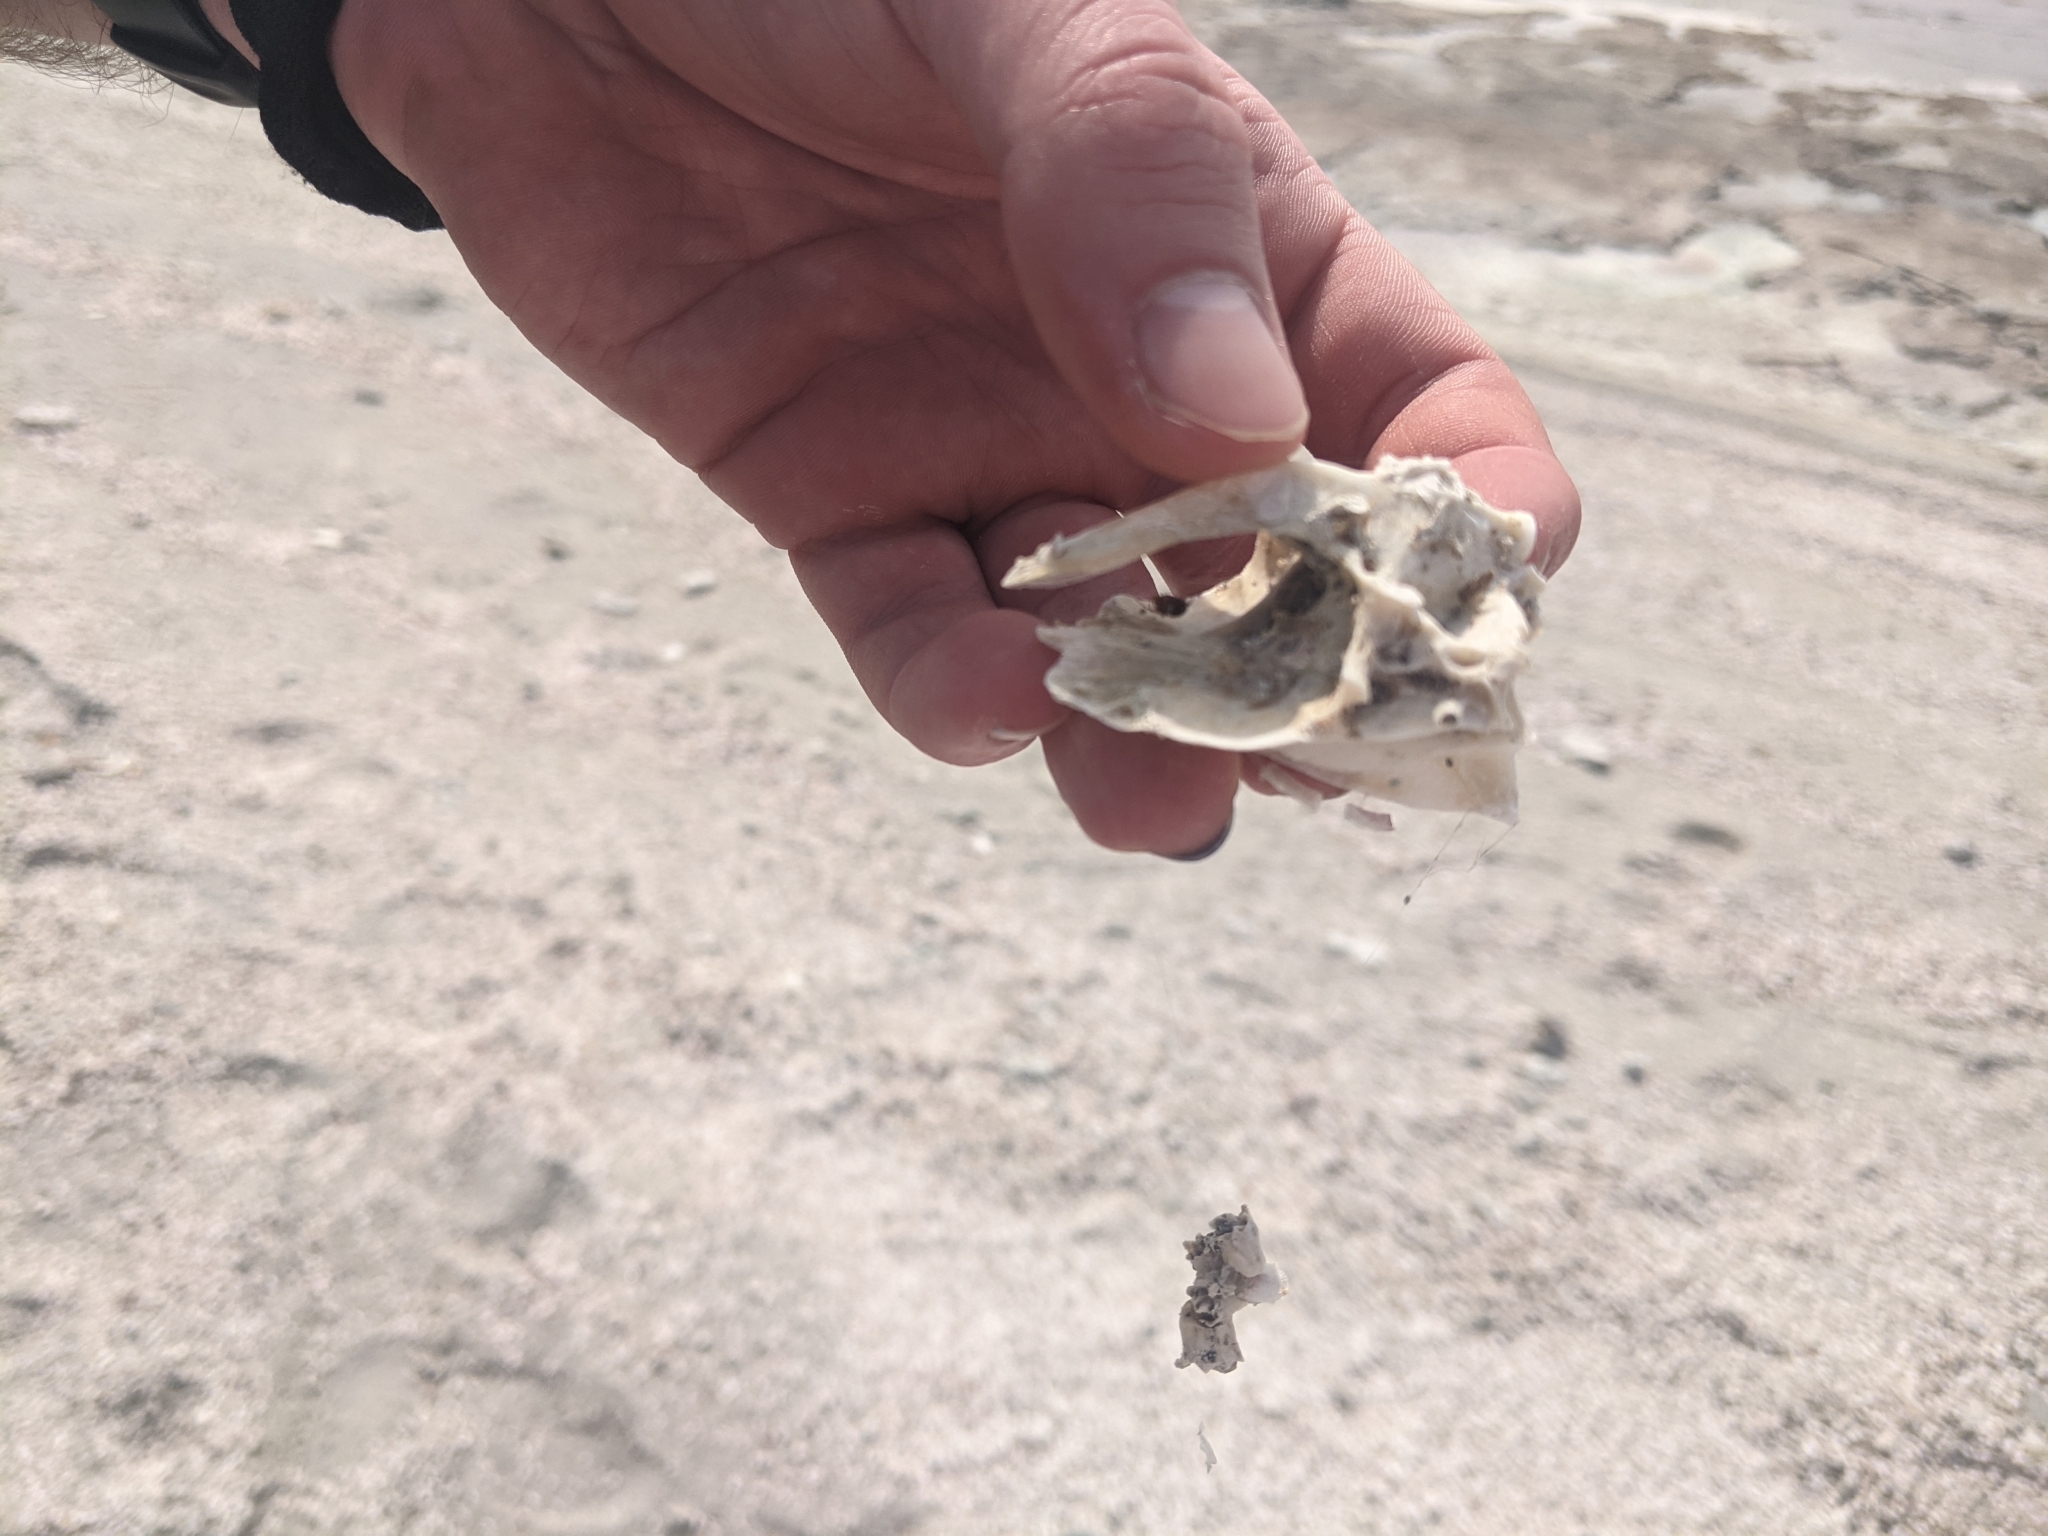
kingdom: Animalia
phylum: Chordata
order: Perciformes
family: Cichlidae
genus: Oreochromis
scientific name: Oreochromis mossambicus
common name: Mozambique tilapia
